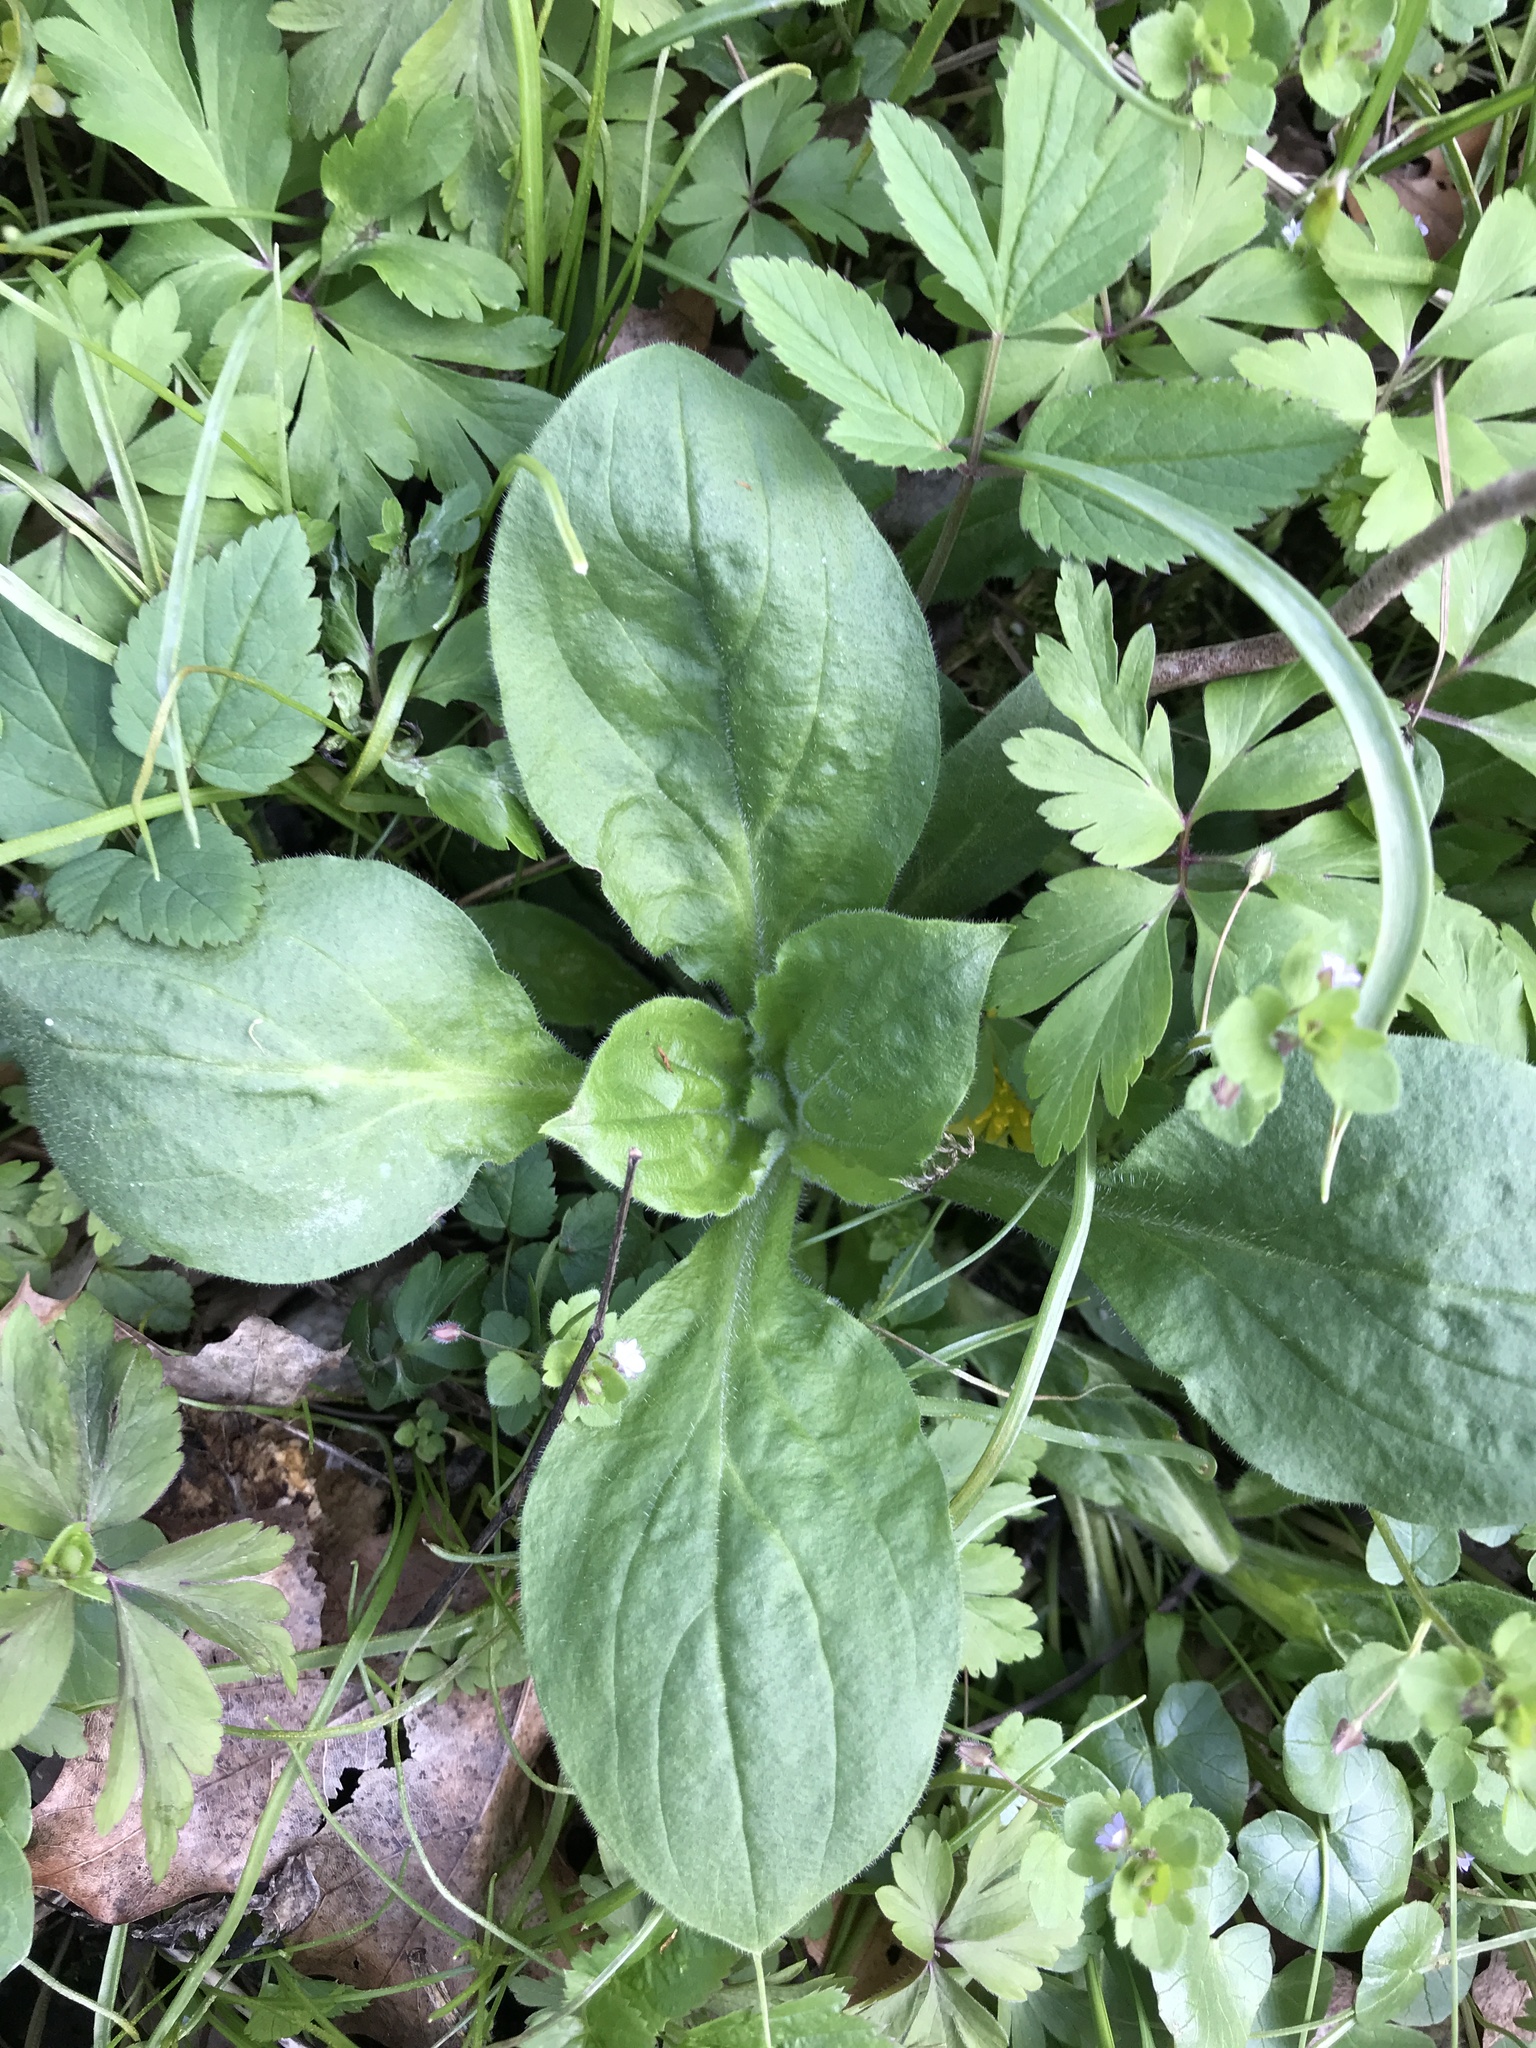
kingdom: Plantae
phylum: Tracheophyta
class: Magnoliopsida
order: Lamiales
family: Plantaginaceae
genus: Plantago
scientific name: Plantago major
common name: Common plantain
